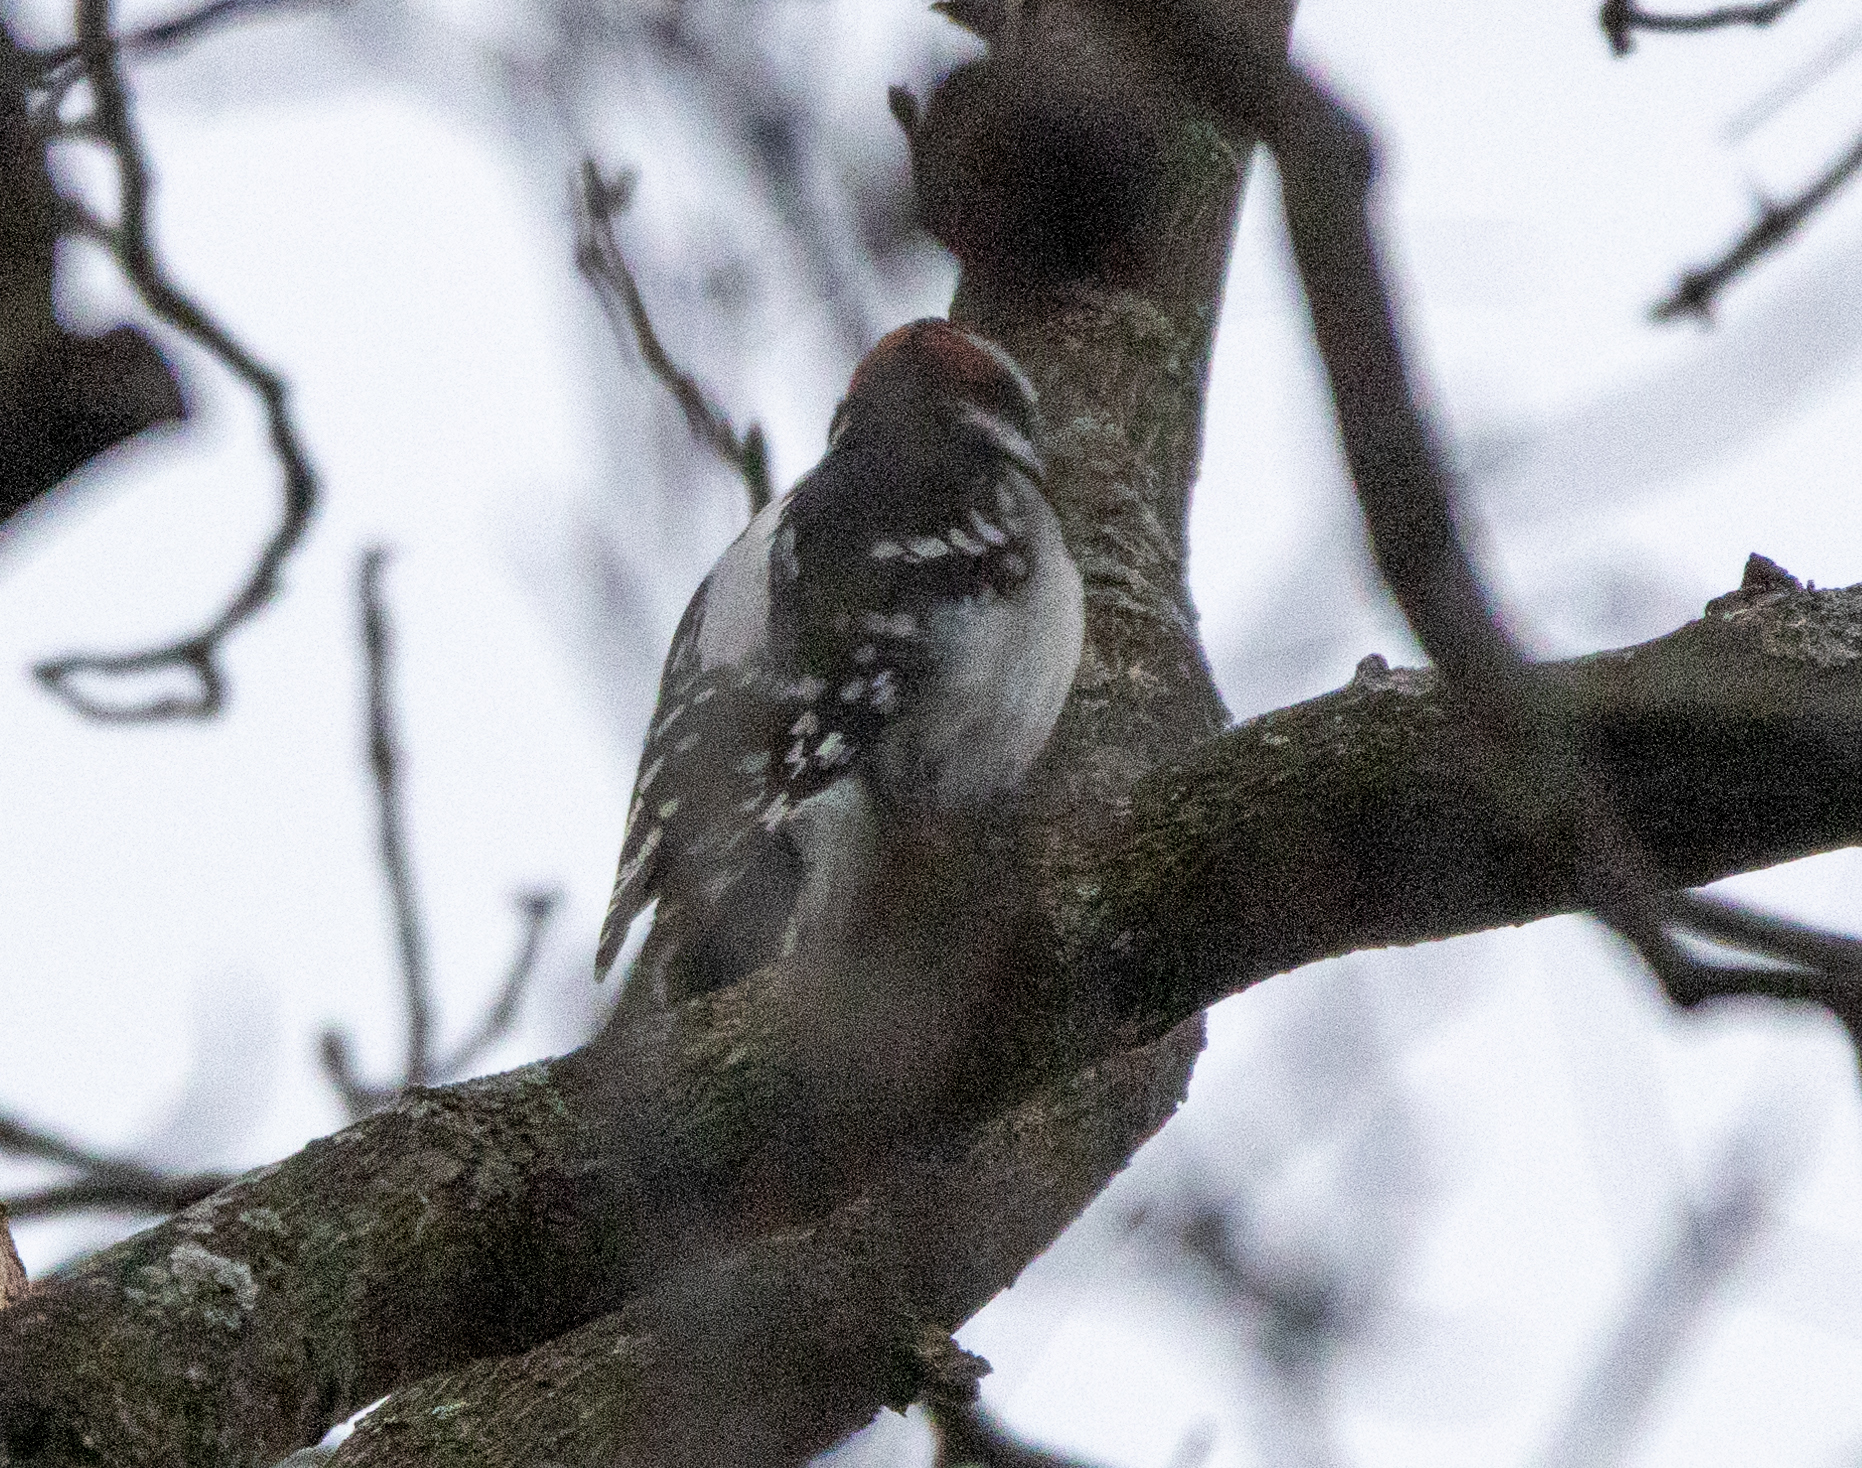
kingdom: Animalia
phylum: Chordata
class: Aves
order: Piciformes
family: Picidae
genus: Leuconotopicus
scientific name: Leuconotopicus villosus
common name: Hairy woodpecker
